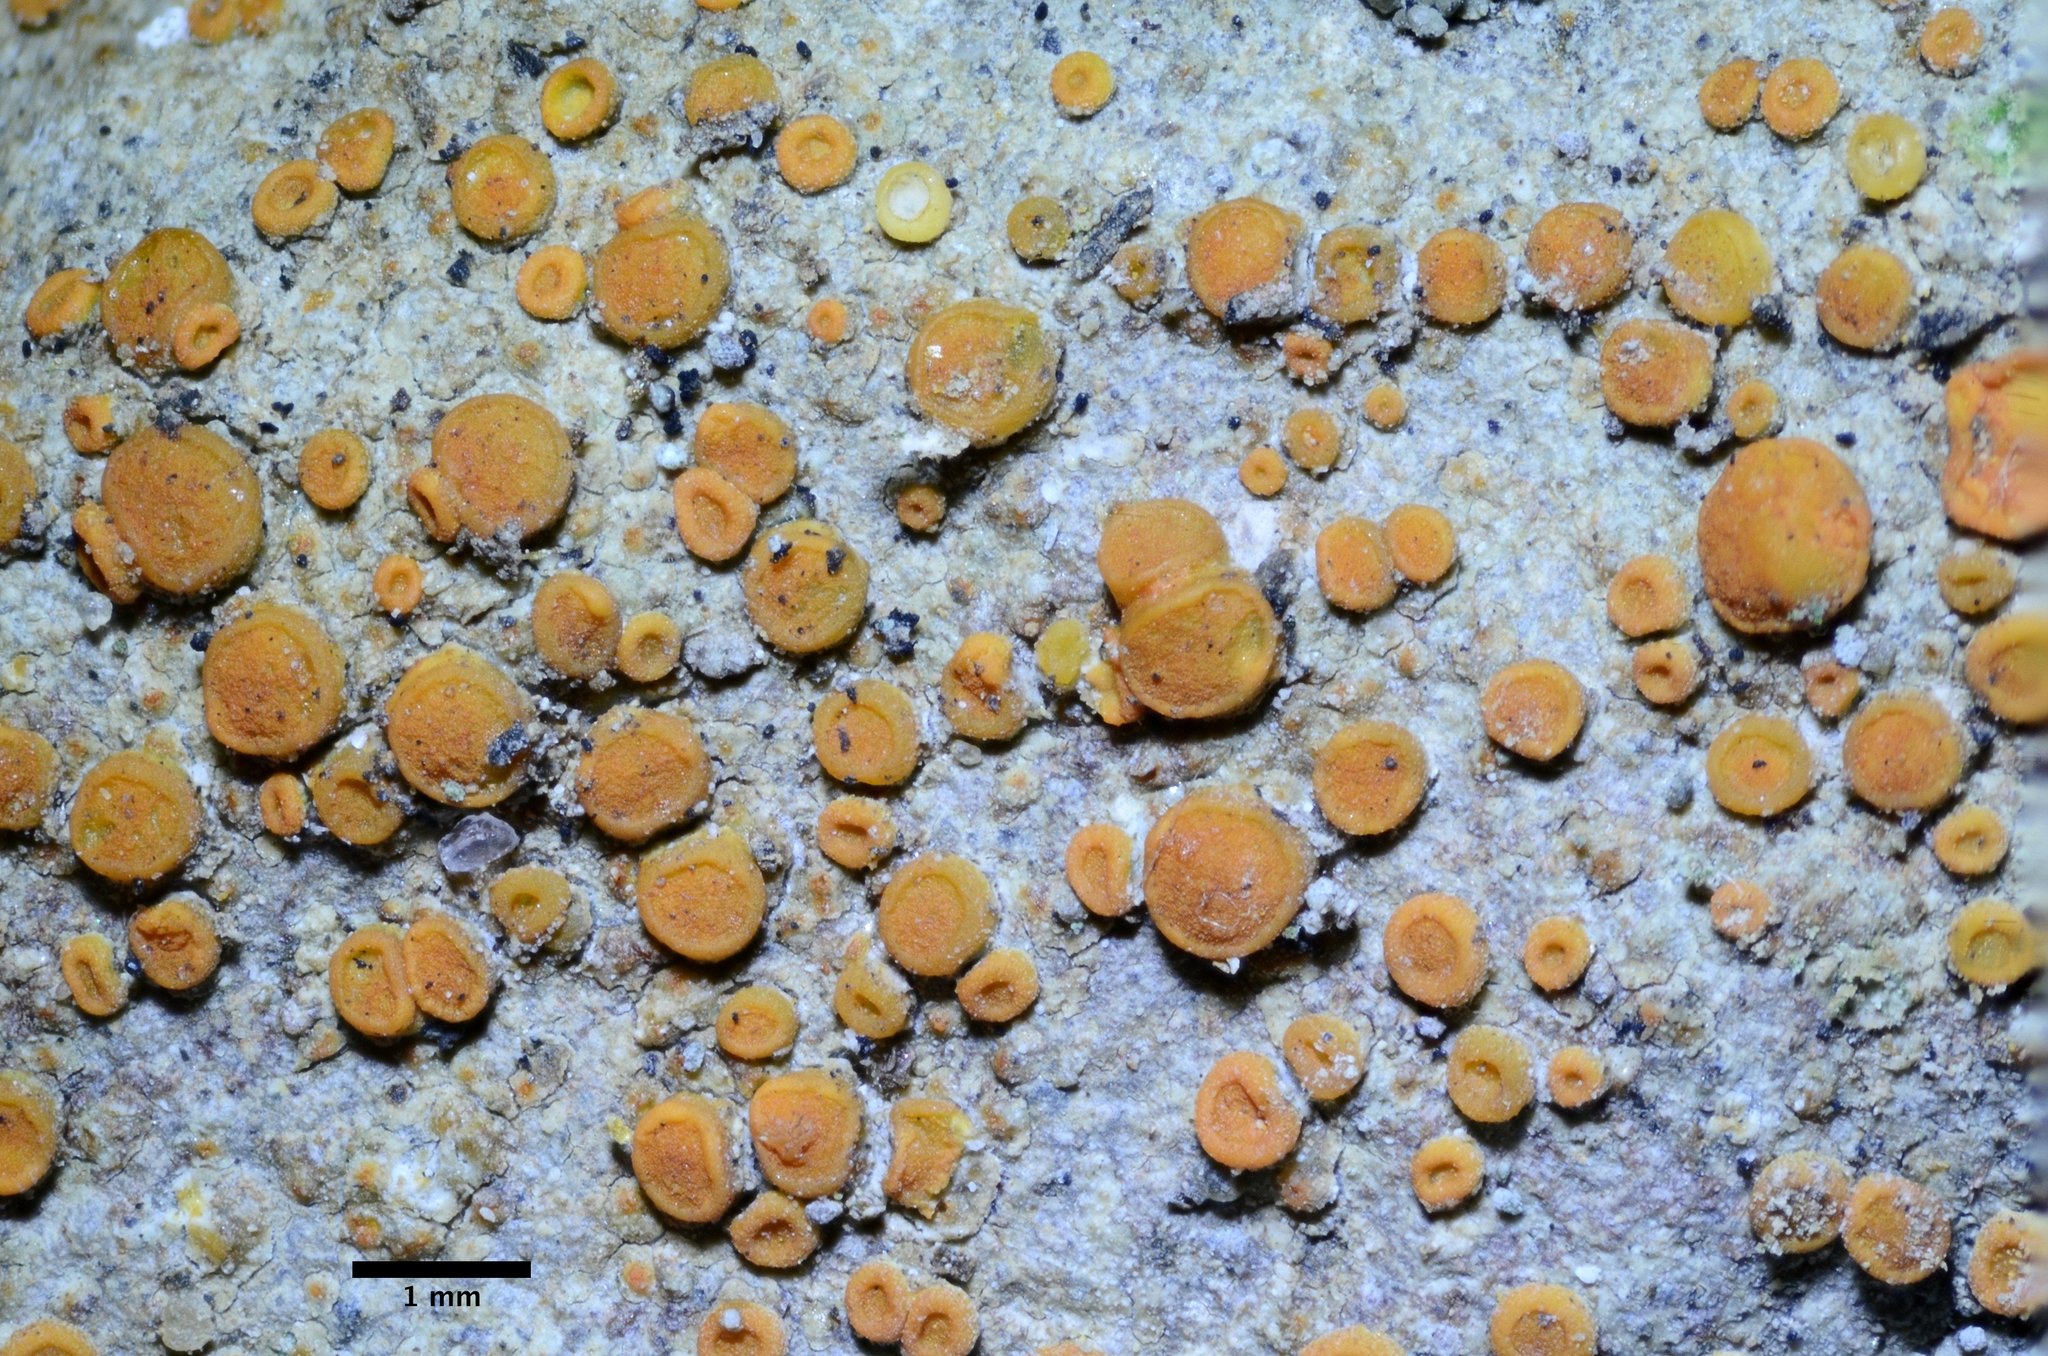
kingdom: Fungi
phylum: Ascomycota
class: Lecanoromycetes
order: Teloschistales
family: Teloschistaceae
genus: Flavoplaca
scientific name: Flavoplaca marina
